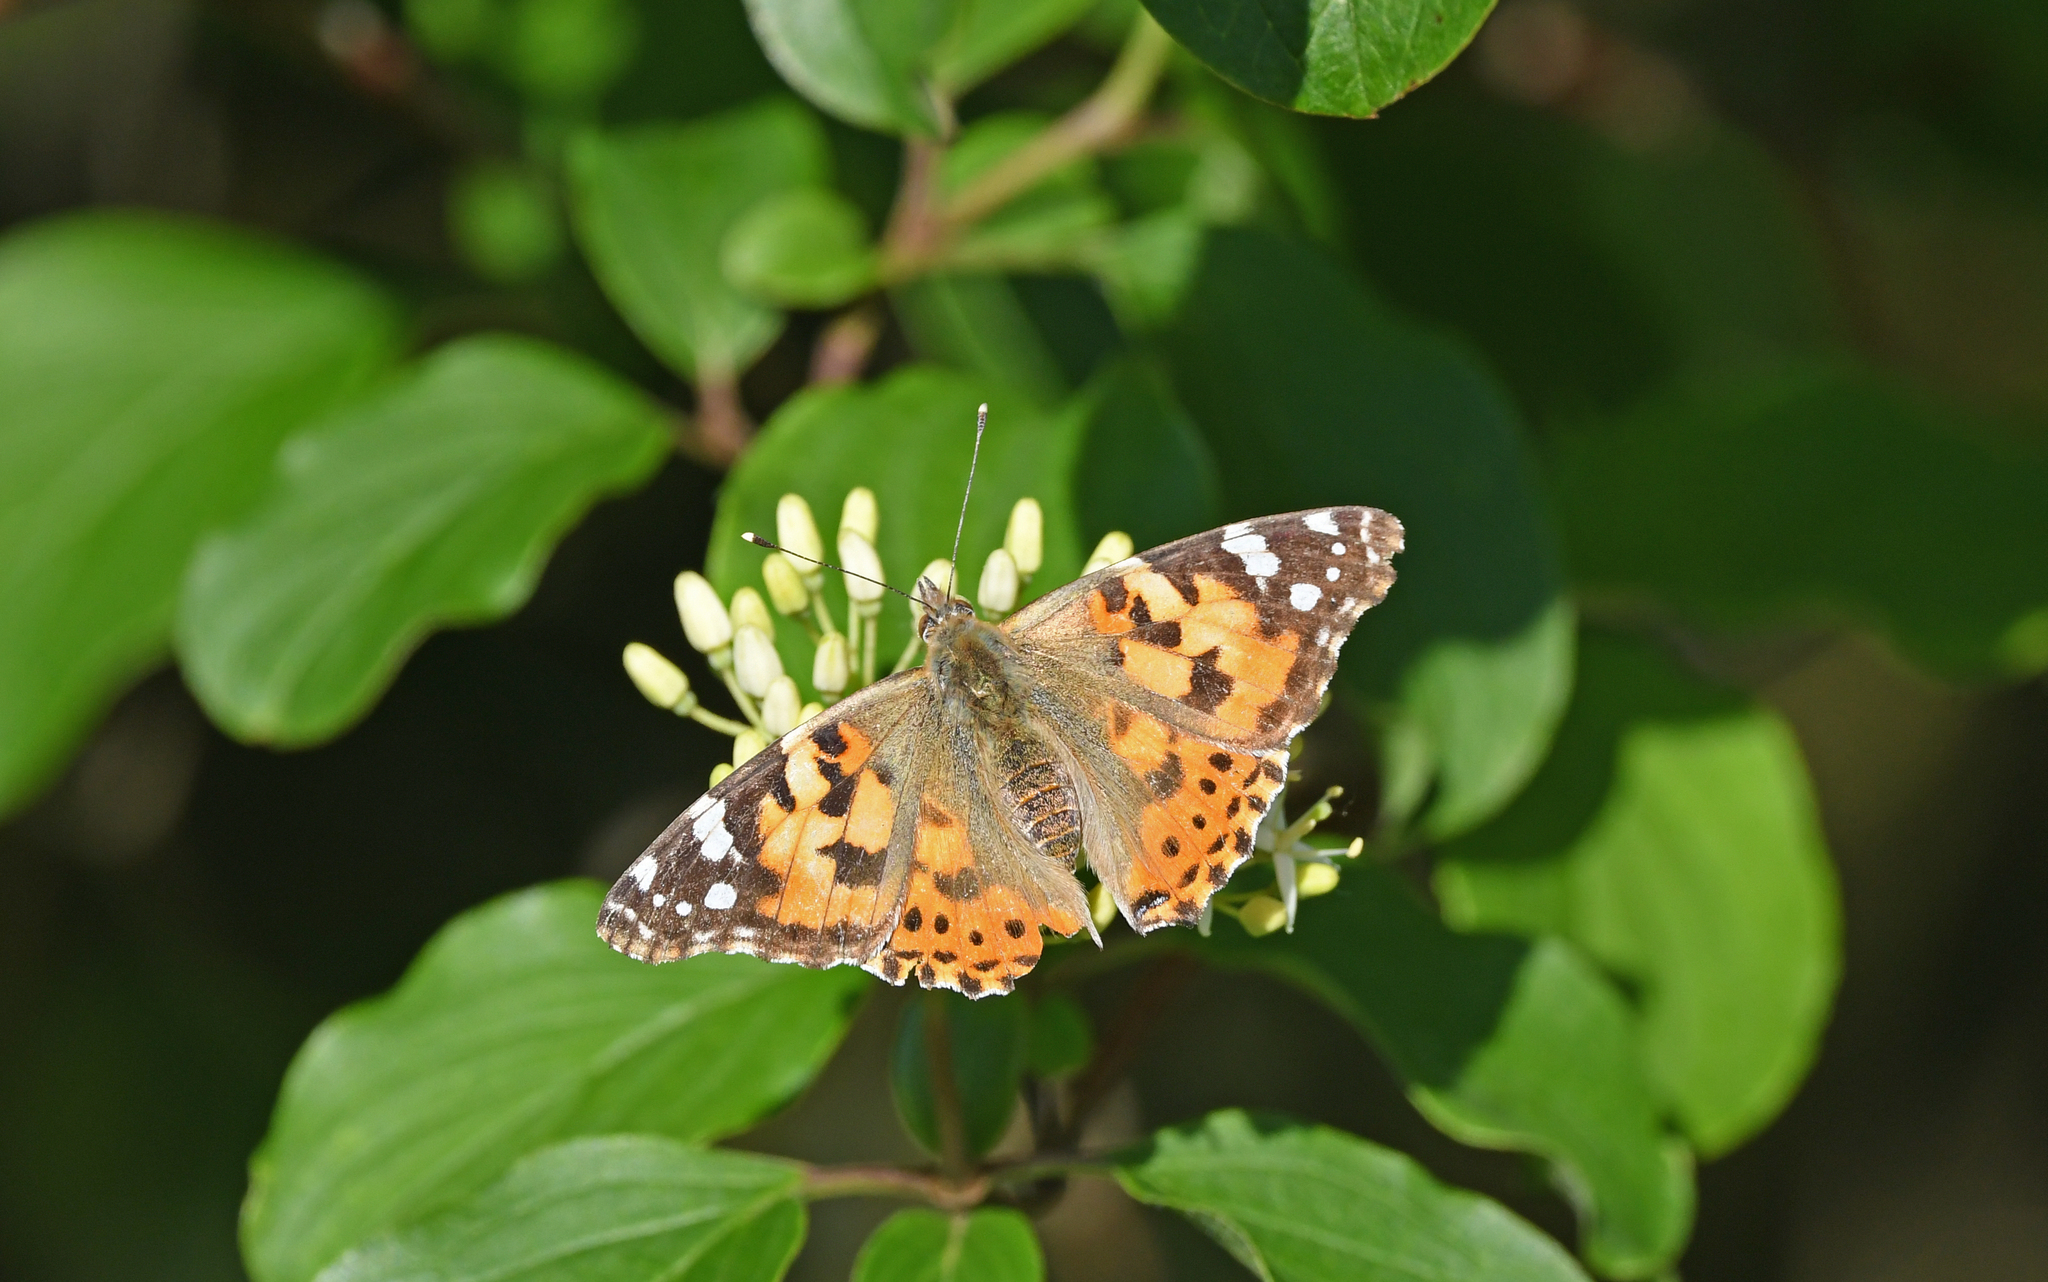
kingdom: Animalia
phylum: Arthropoda
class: Insecta
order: Lepidoptera
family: Nymphalidae
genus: Vanessa
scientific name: Vanessa cardui
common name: Painted lady
